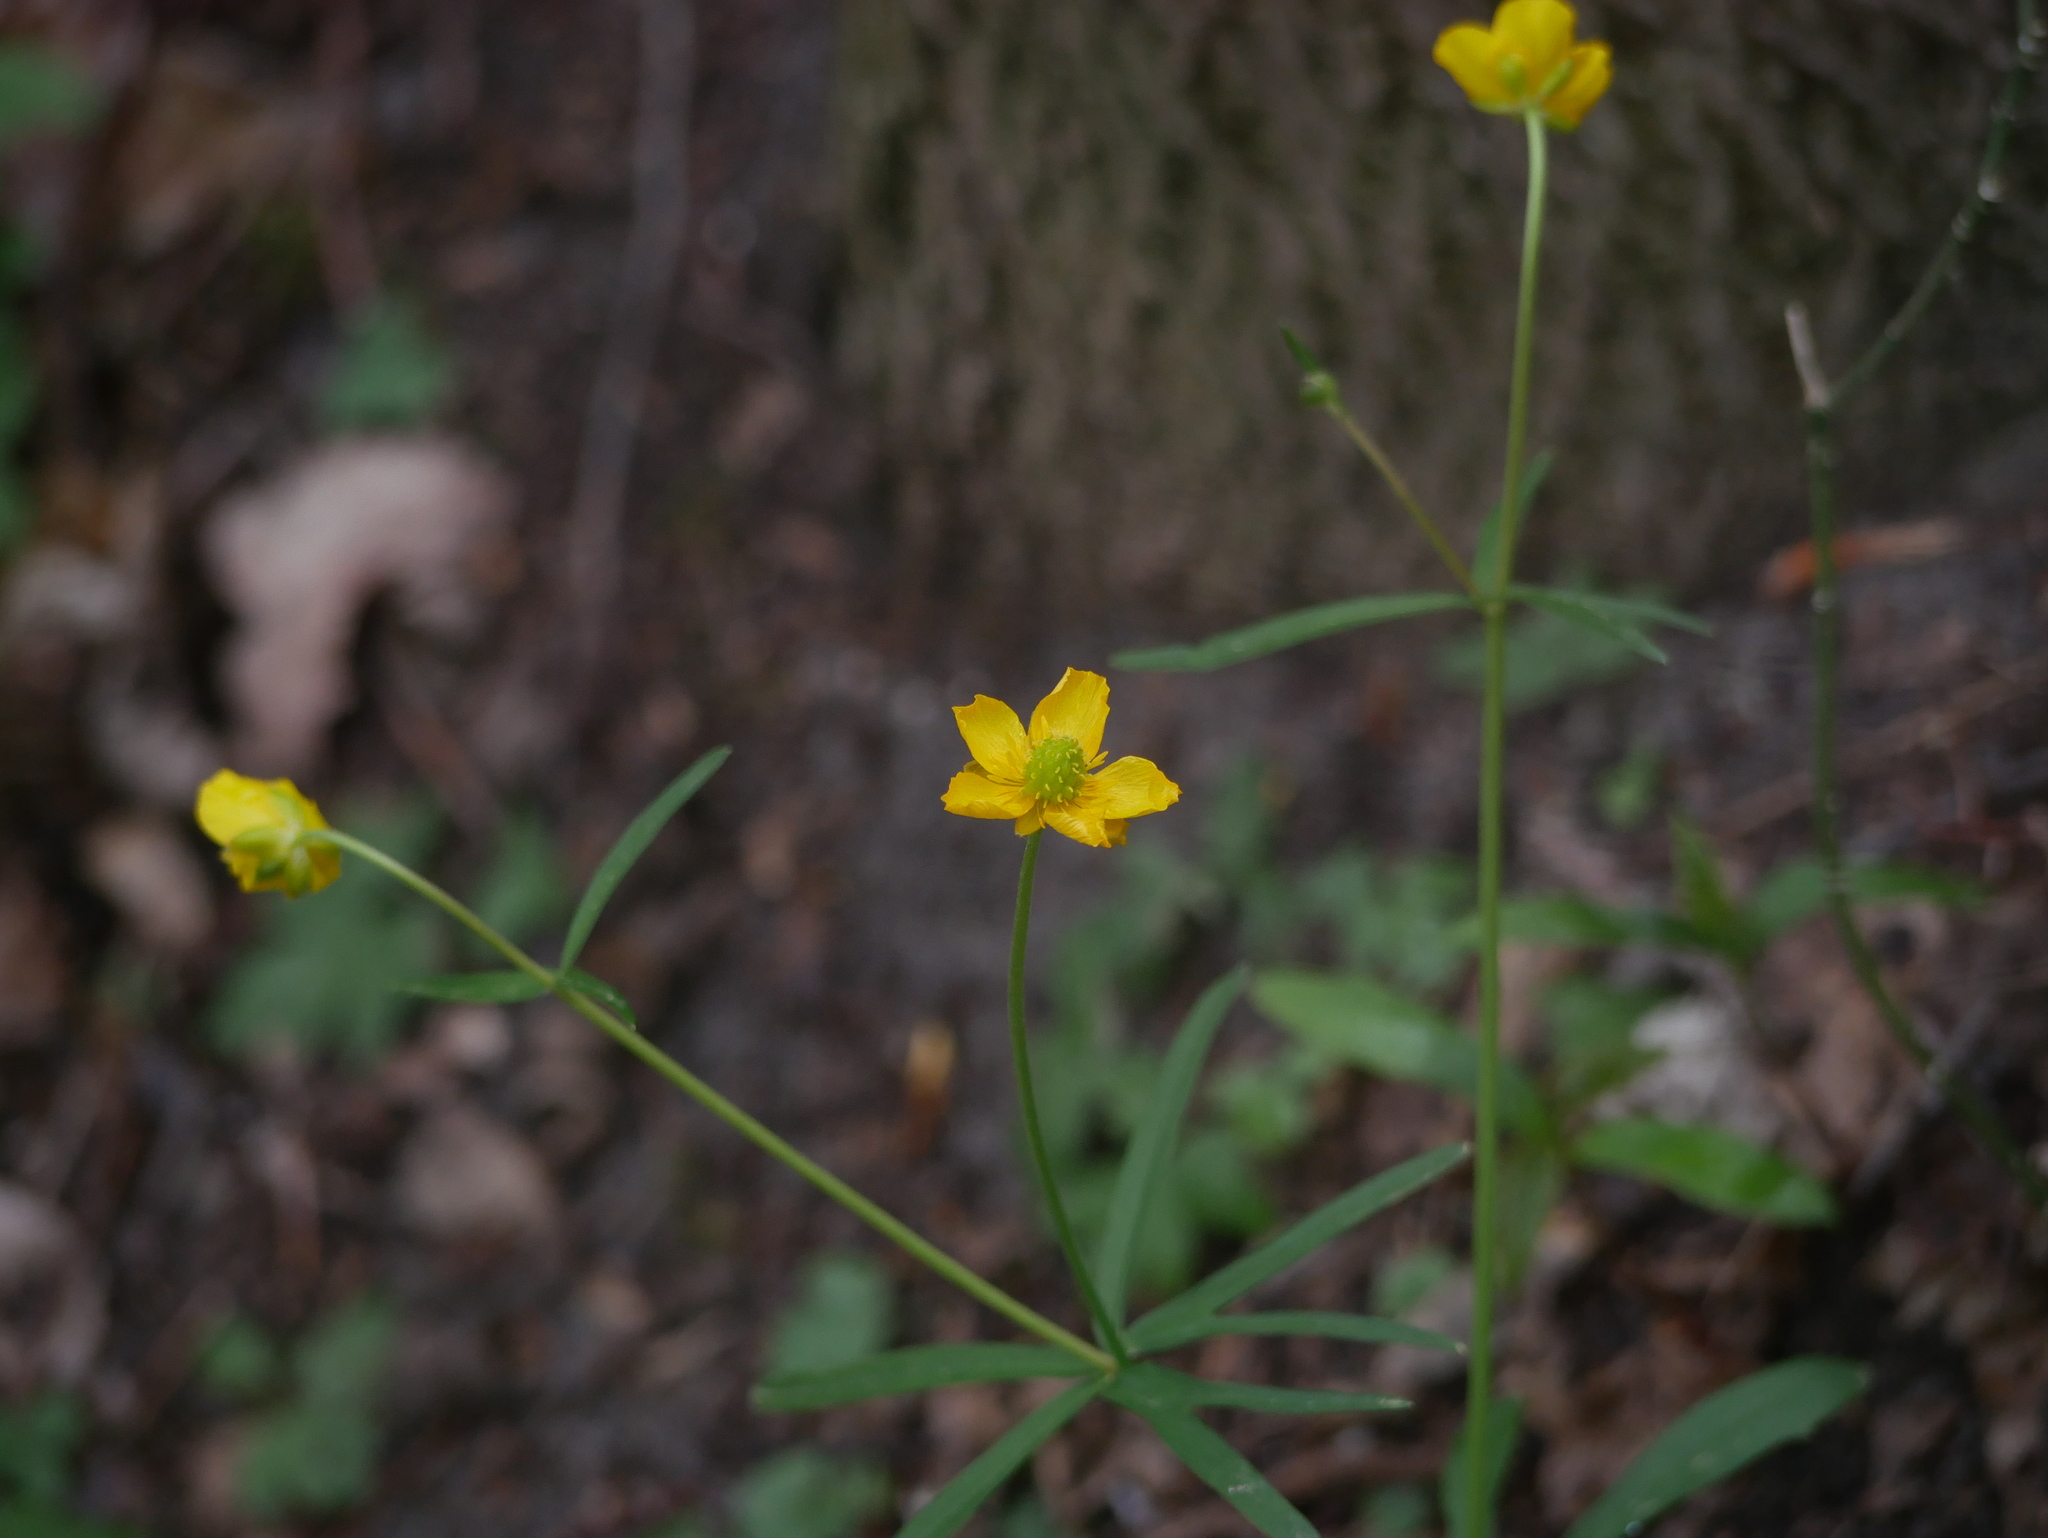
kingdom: Plantae
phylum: Tracheophyta
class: Magnoliopsida
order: Ranunculales
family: Ranunculaceae
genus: Ranunculus
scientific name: Ranunculus auricomus
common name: Goldilocks buttercup
